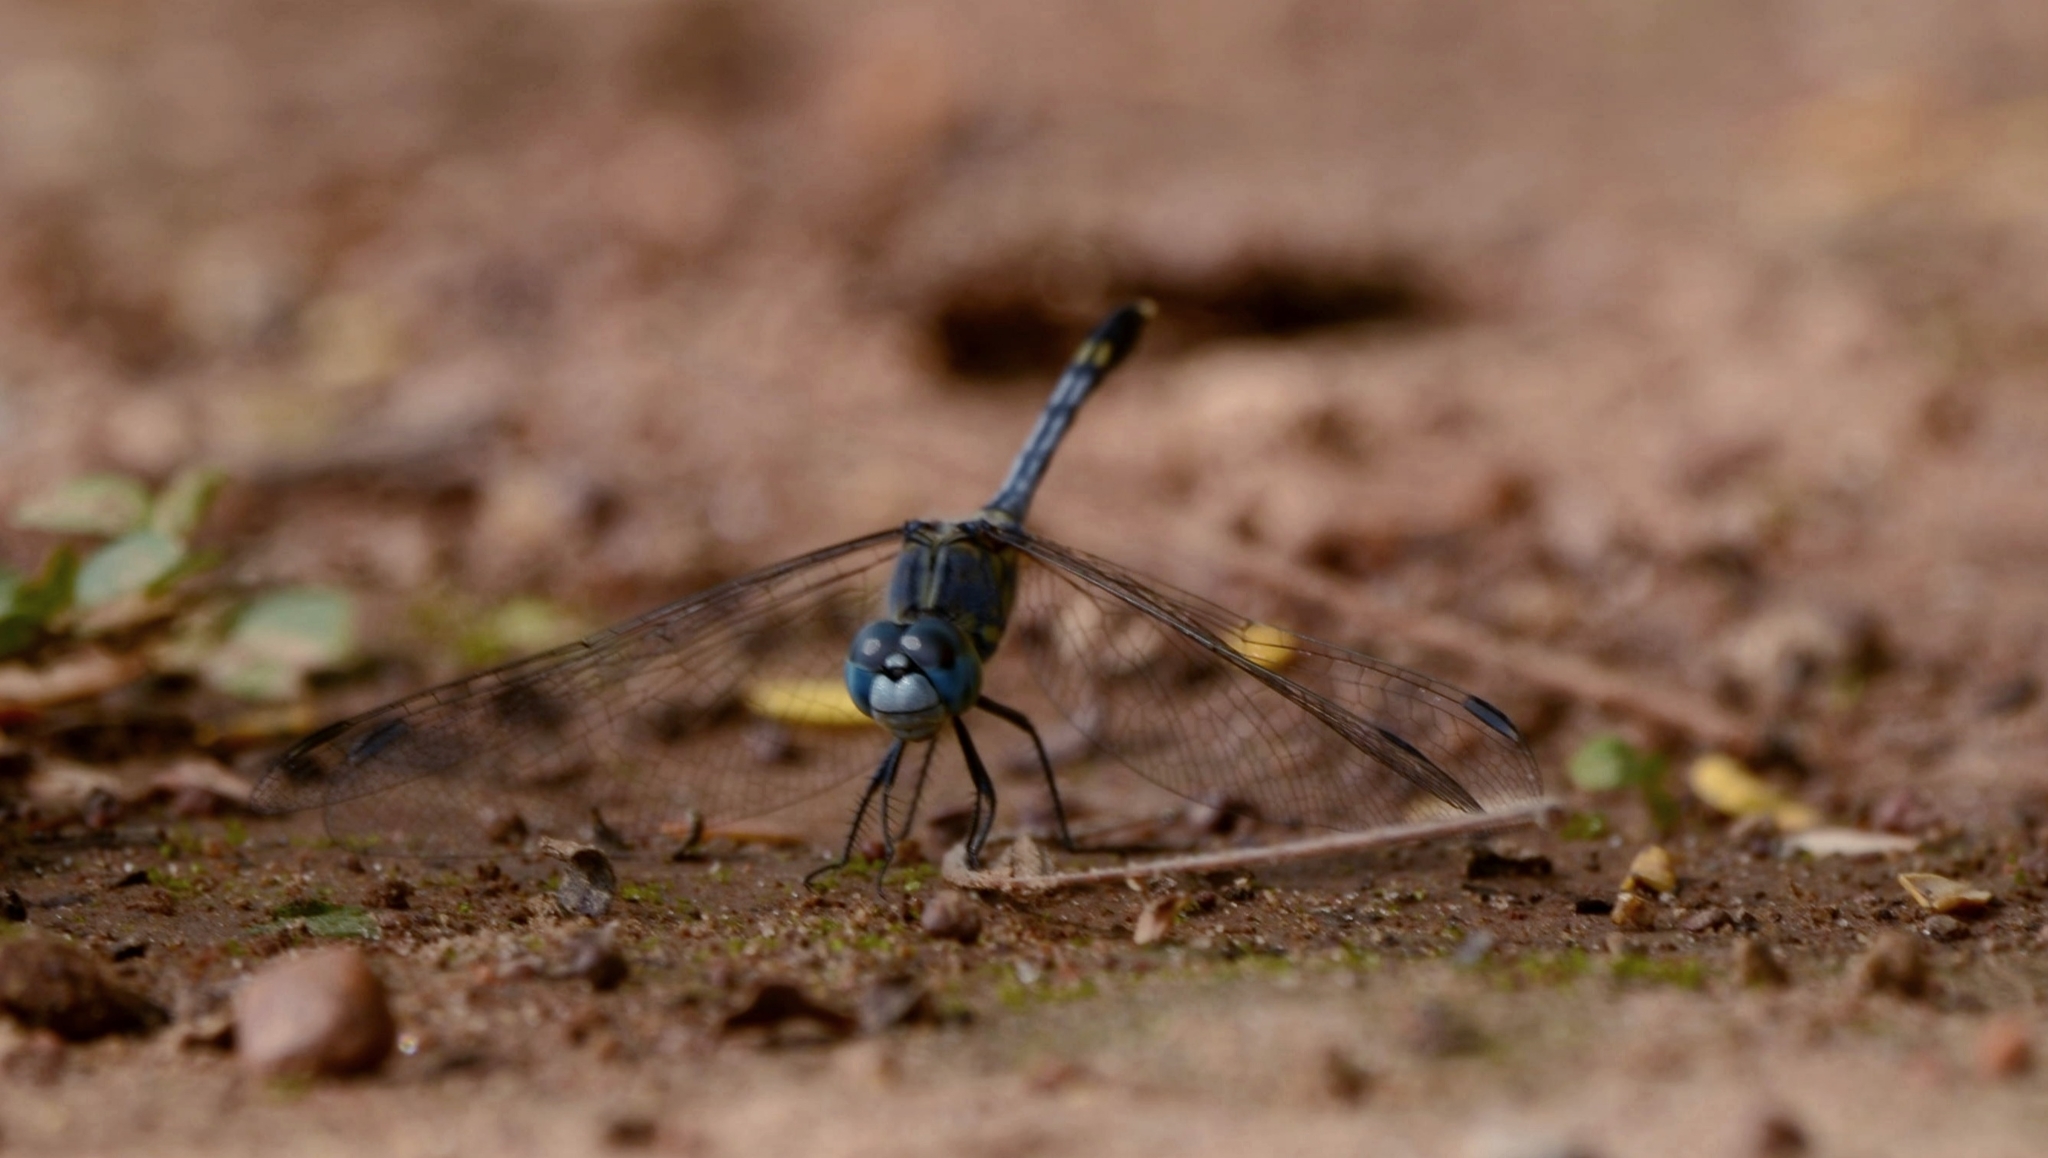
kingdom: Animalia
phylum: Arthropoda
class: Insecta
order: Odonata
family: Libellulidae
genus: Diplacodes
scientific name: Diplacodes trivialis
